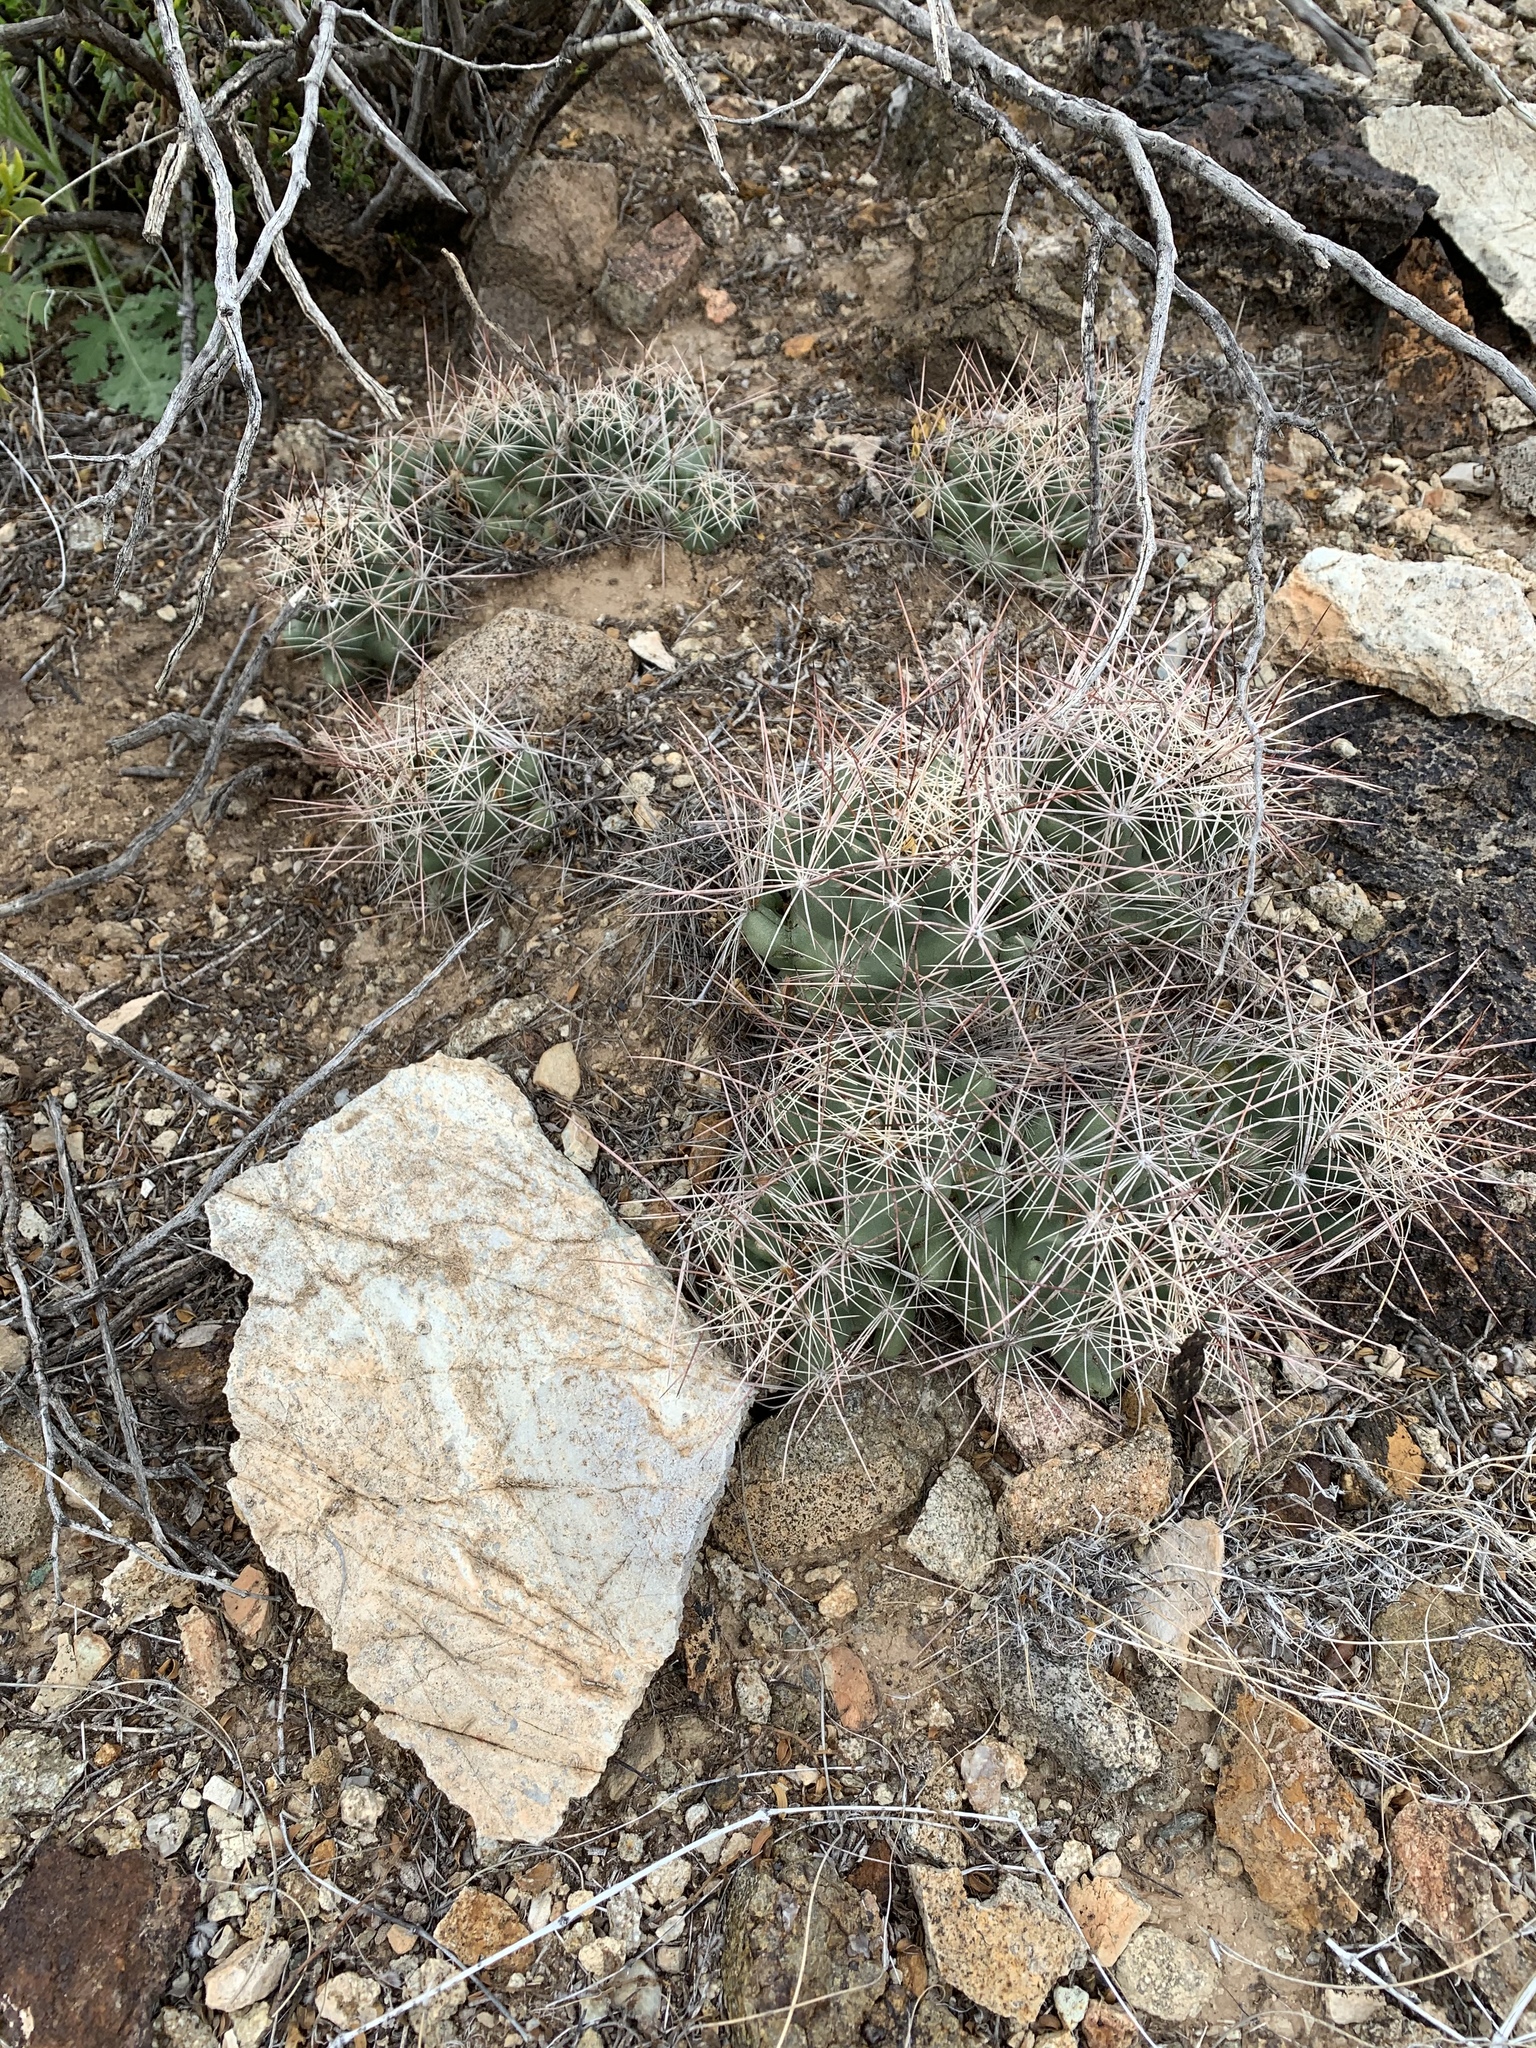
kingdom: Plantae
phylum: Tracheophyta
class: Magnoliopsida
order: Caryophyllales
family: Cactaceae
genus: Coryphantha
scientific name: Coryphantha macromeris
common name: Nipple beehive cactus
